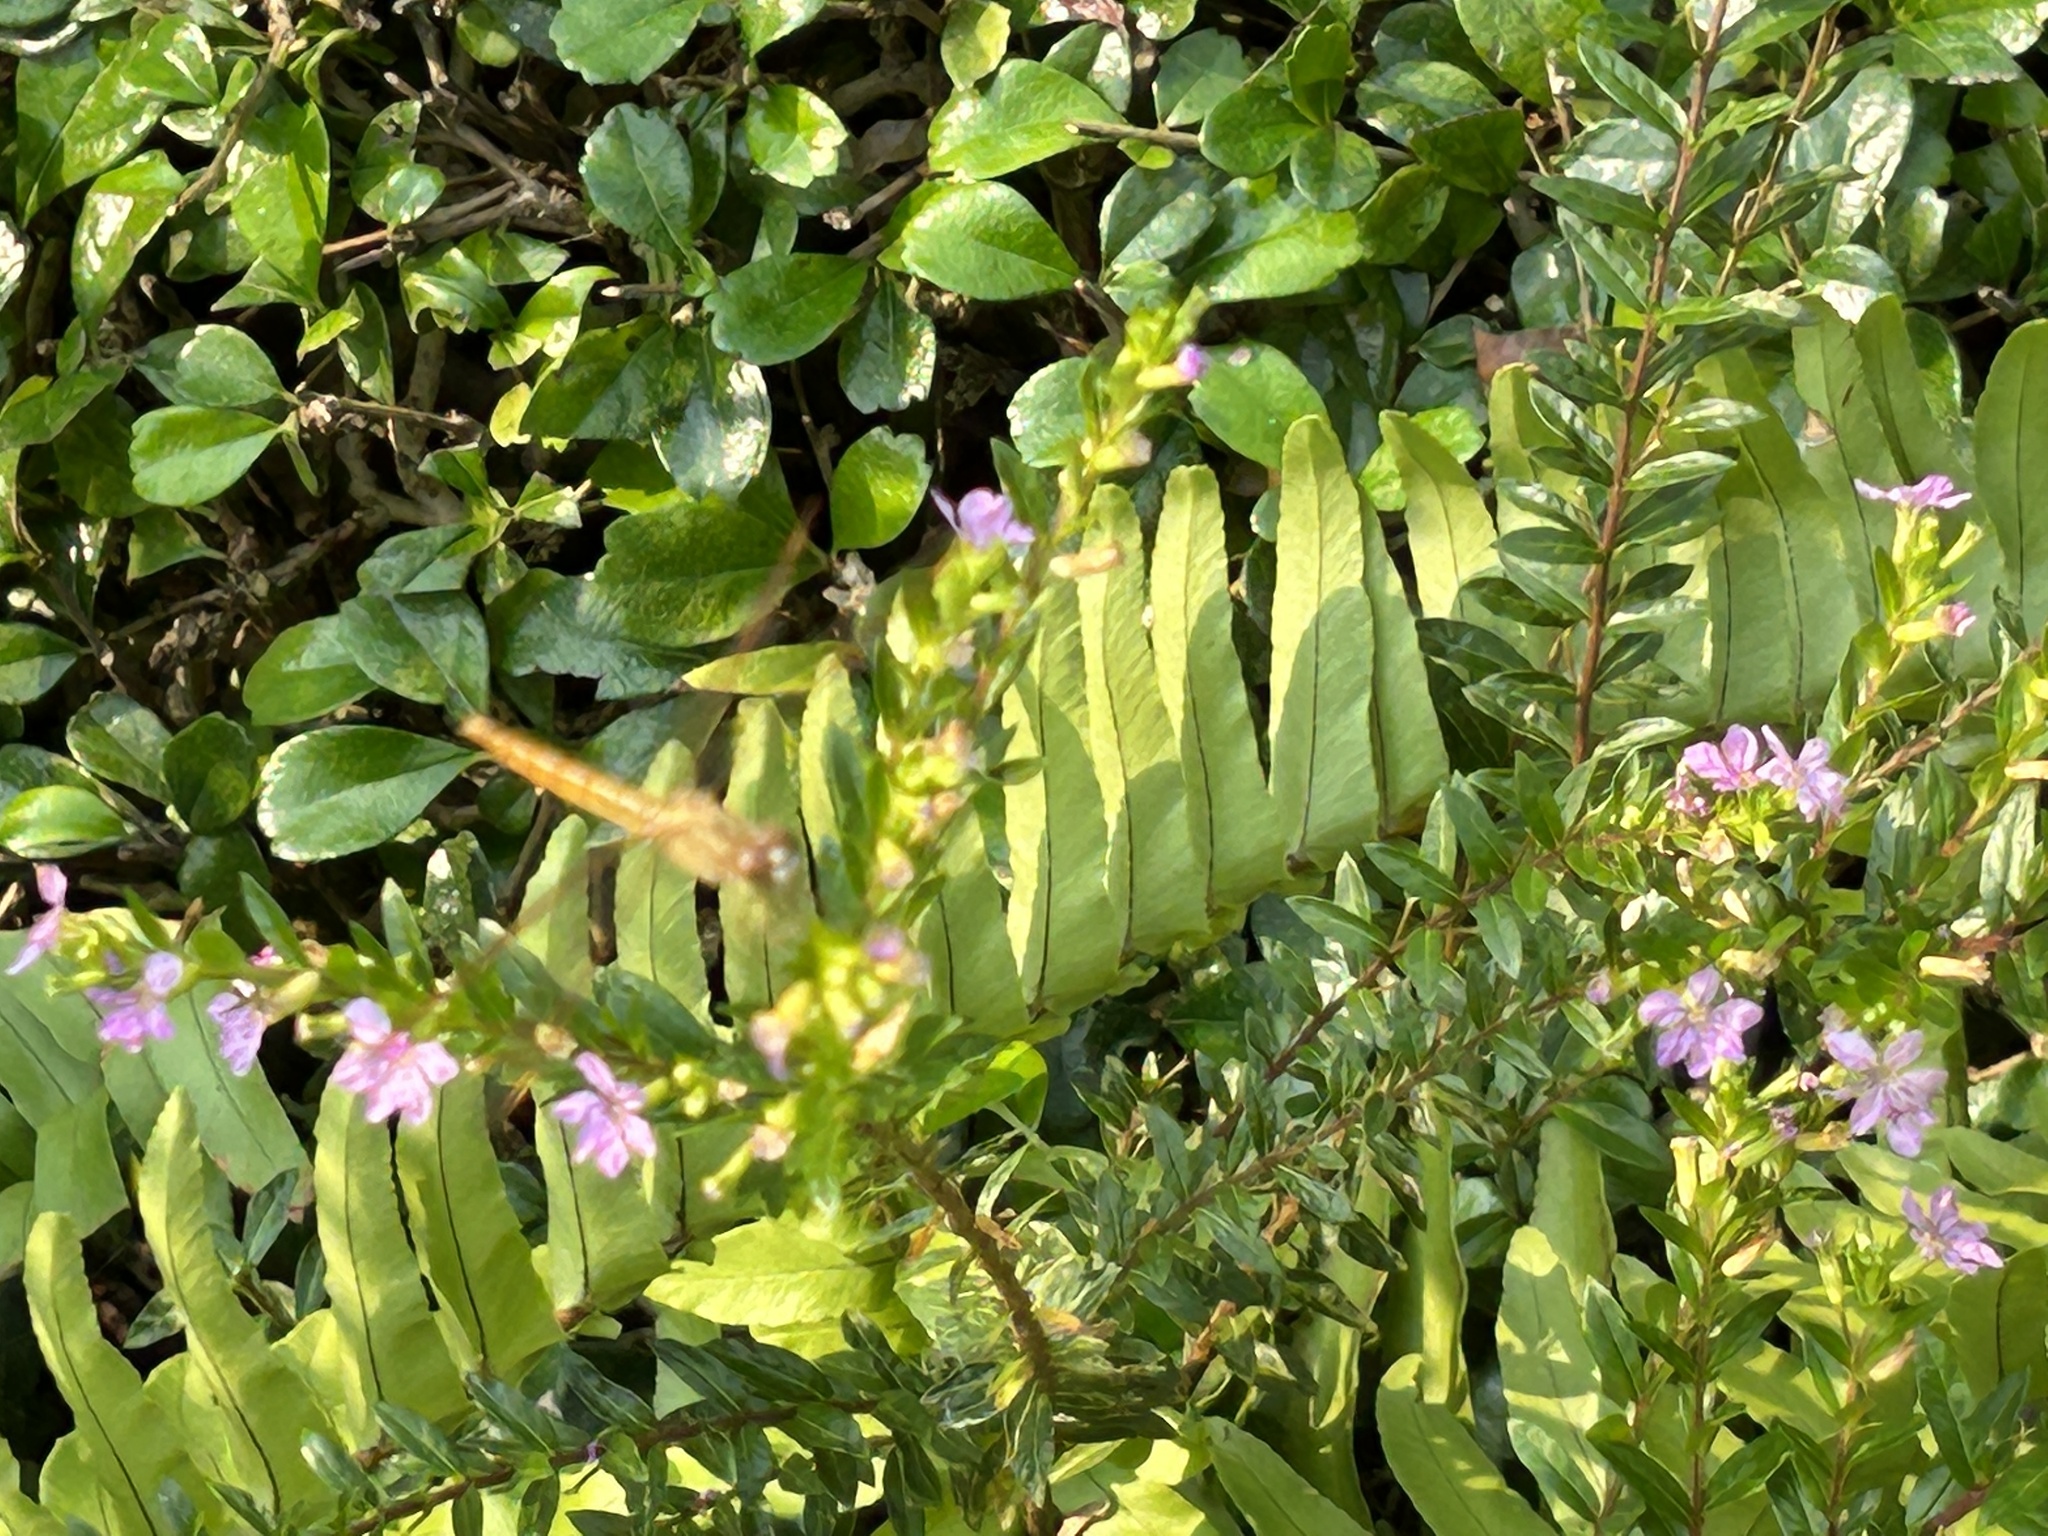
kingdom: Animalia
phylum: Arthropoda
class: Insecta
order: Odonata
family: Libellulidae
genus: Brachythemis
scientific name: Brachythemis contaminata
